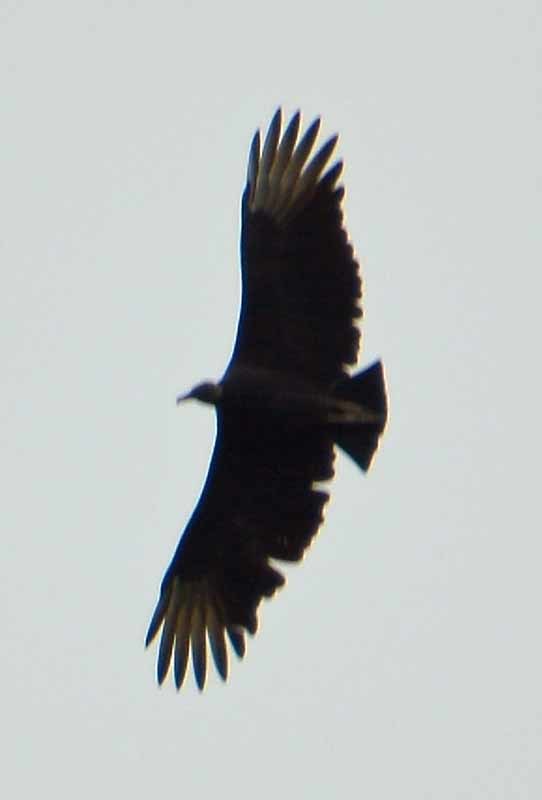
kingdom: Animalia
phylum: Chordata
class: Aves
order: Accipitriformes
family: Cathartidae
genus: Coragyps
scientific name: Coragyps atratus
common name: Black vulture
